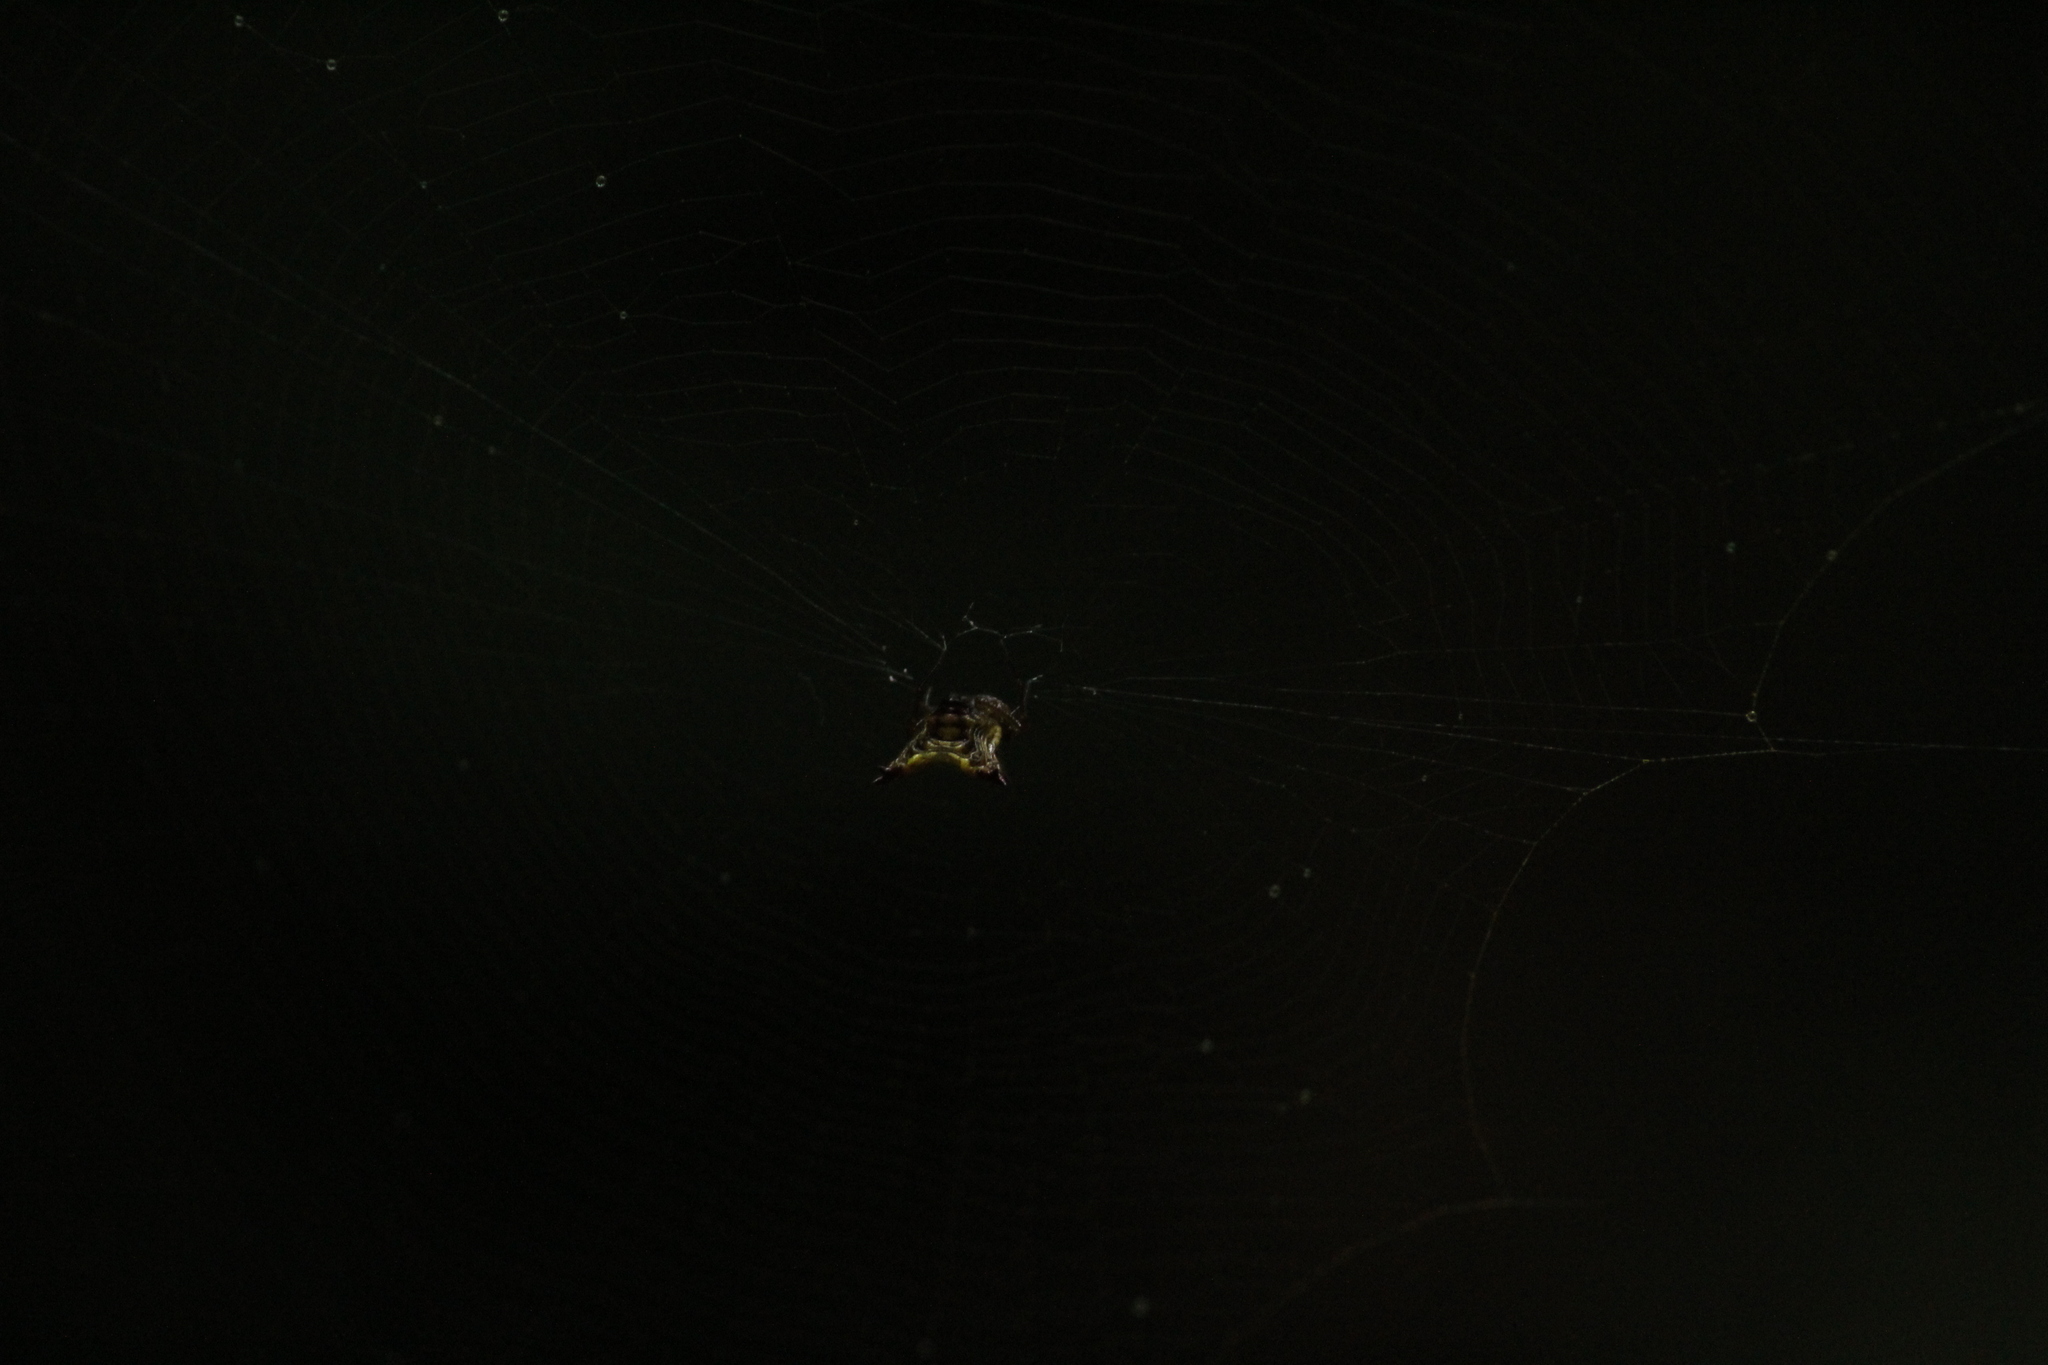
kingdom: Animalia
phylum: Arthropoda
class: Arachnida
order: Araneae
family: Araneidae
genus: Micrathena
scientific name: Micrathena plana
